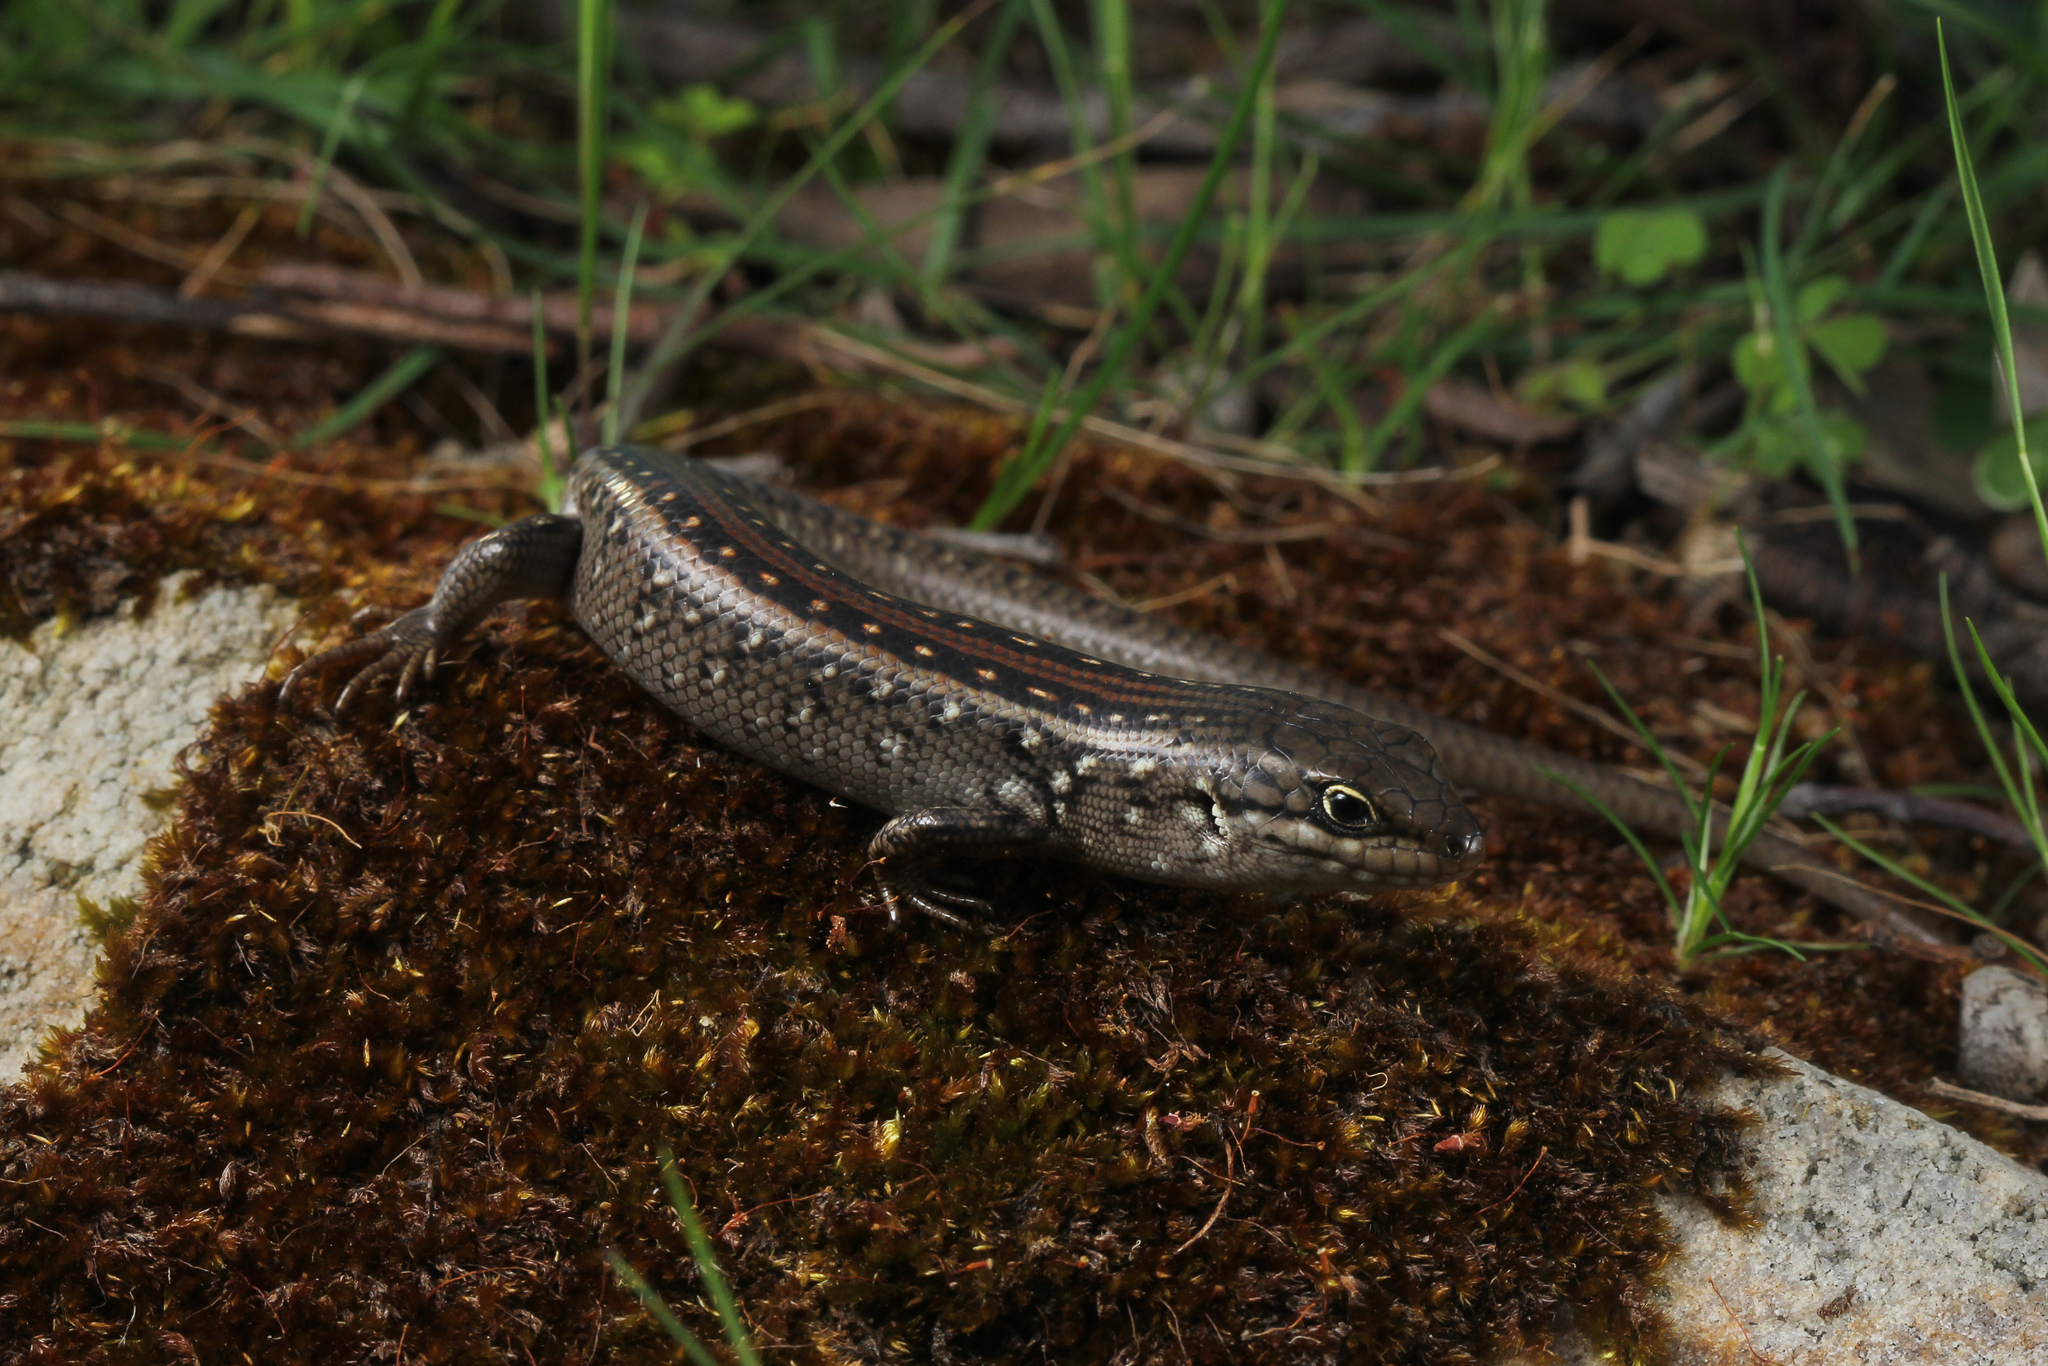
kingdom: Animalia
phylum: Chordata
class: Squamata
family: Scincidae
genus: Liopholis
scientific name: Liopholis whitii
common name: White's rock-skink
